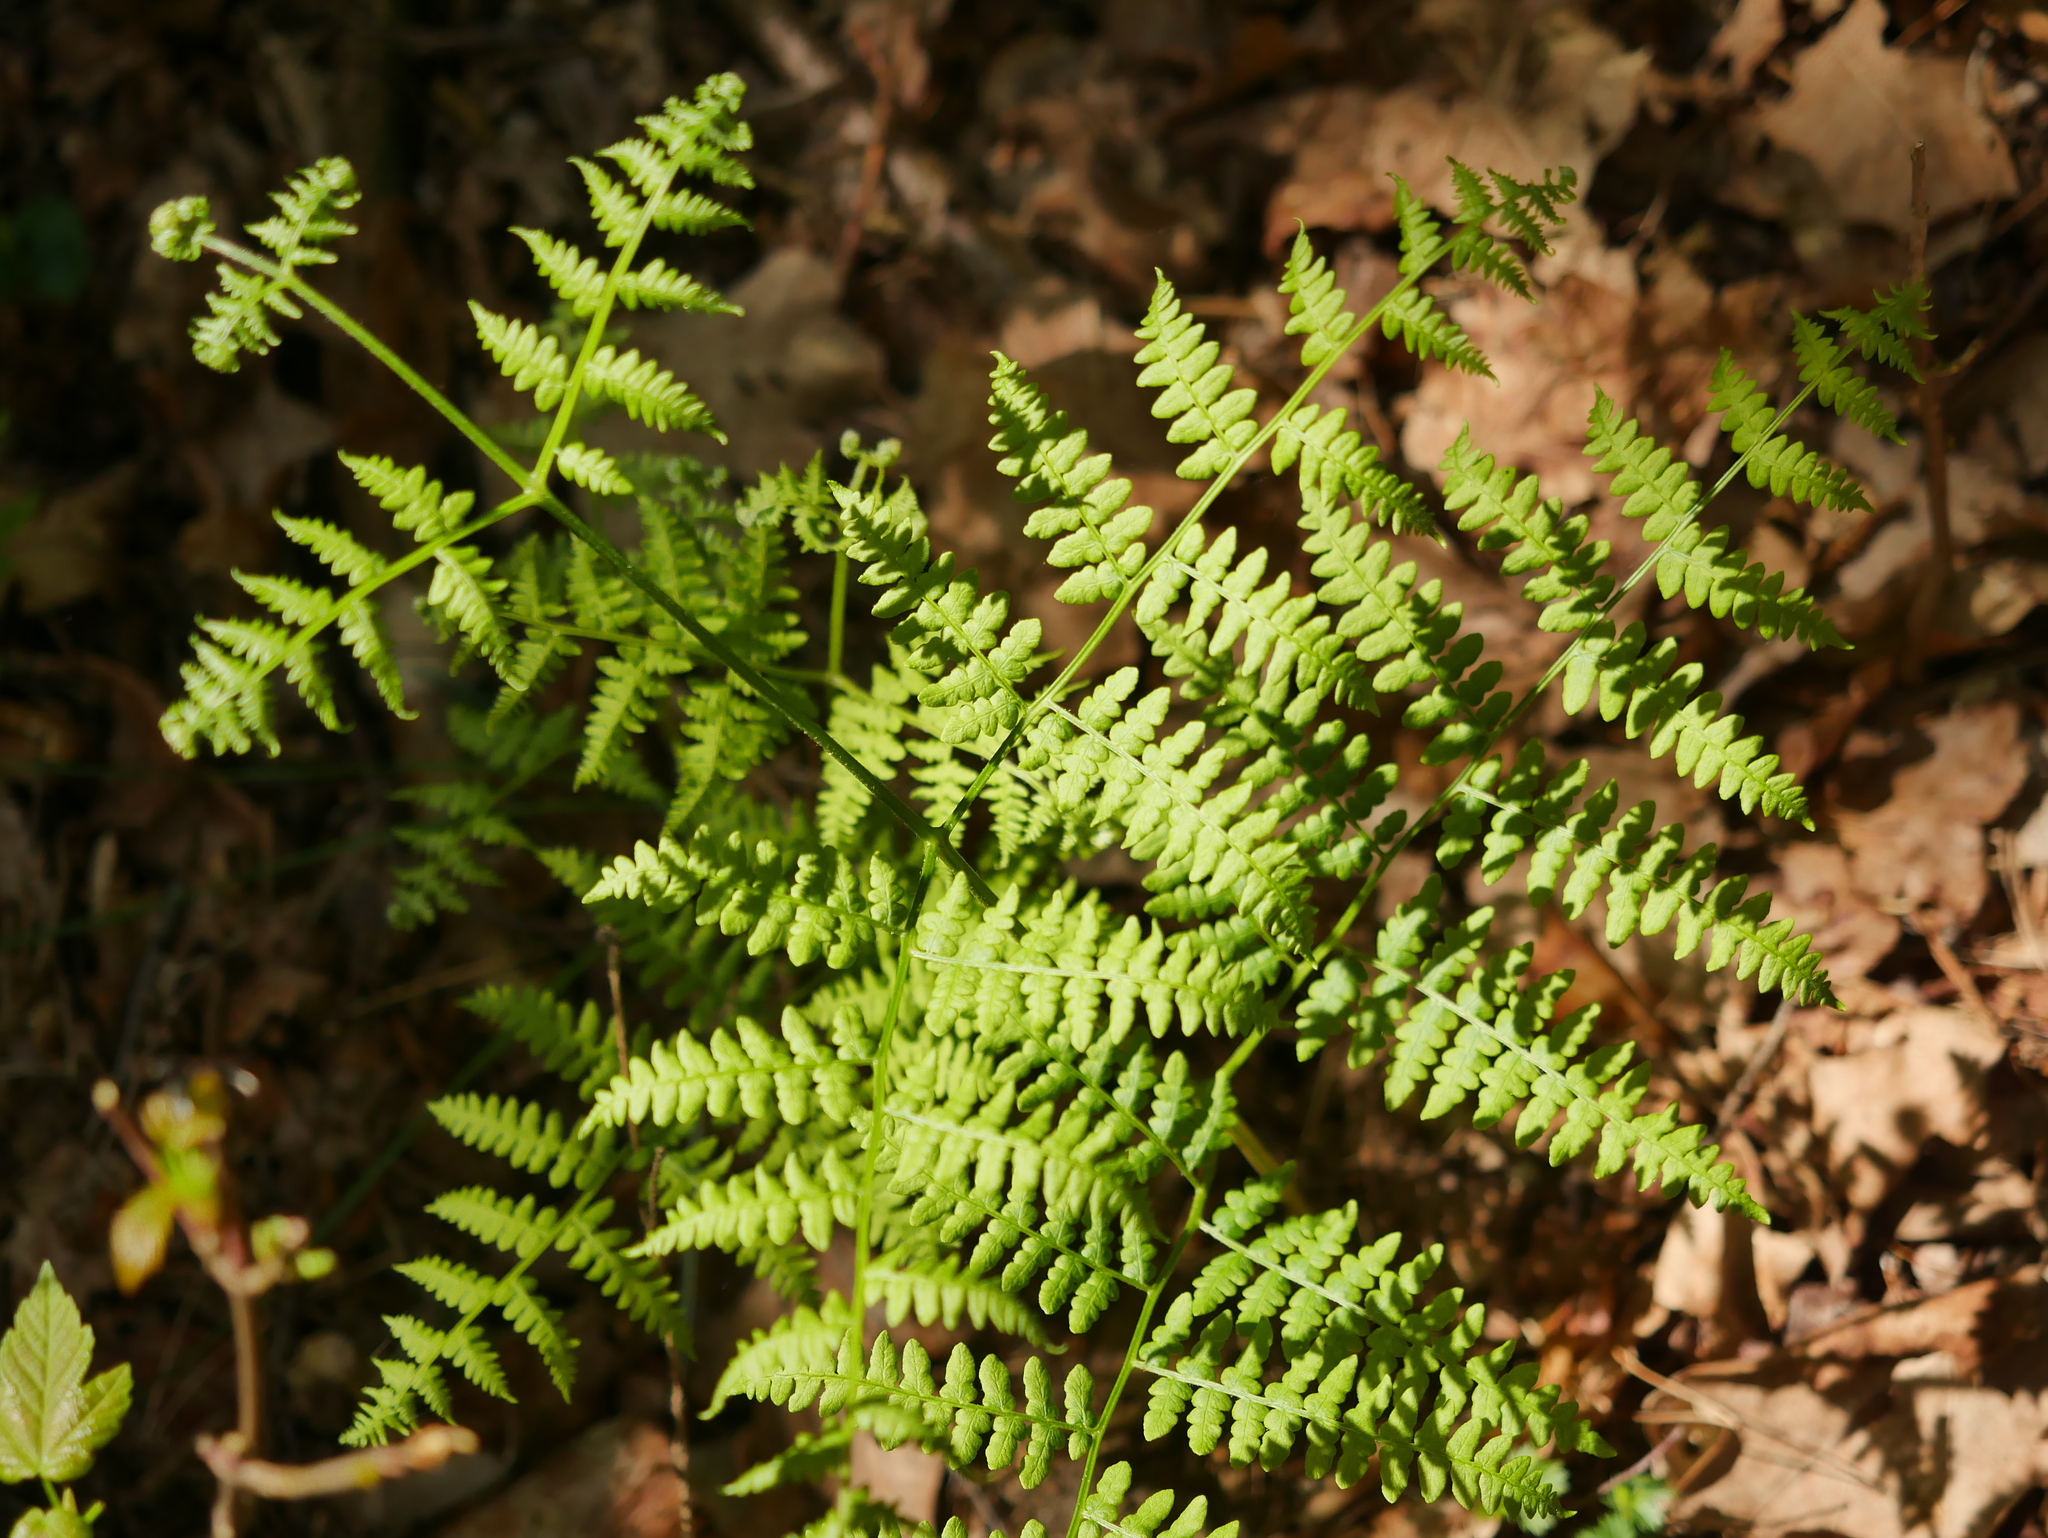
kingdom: Plantae
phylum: Tracheophyta
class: Polypodiopsida
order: Polypodiales
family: Dennstaedtiaceae
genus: Pteridium
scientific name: Pteridium aquilinum
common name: Bracken
